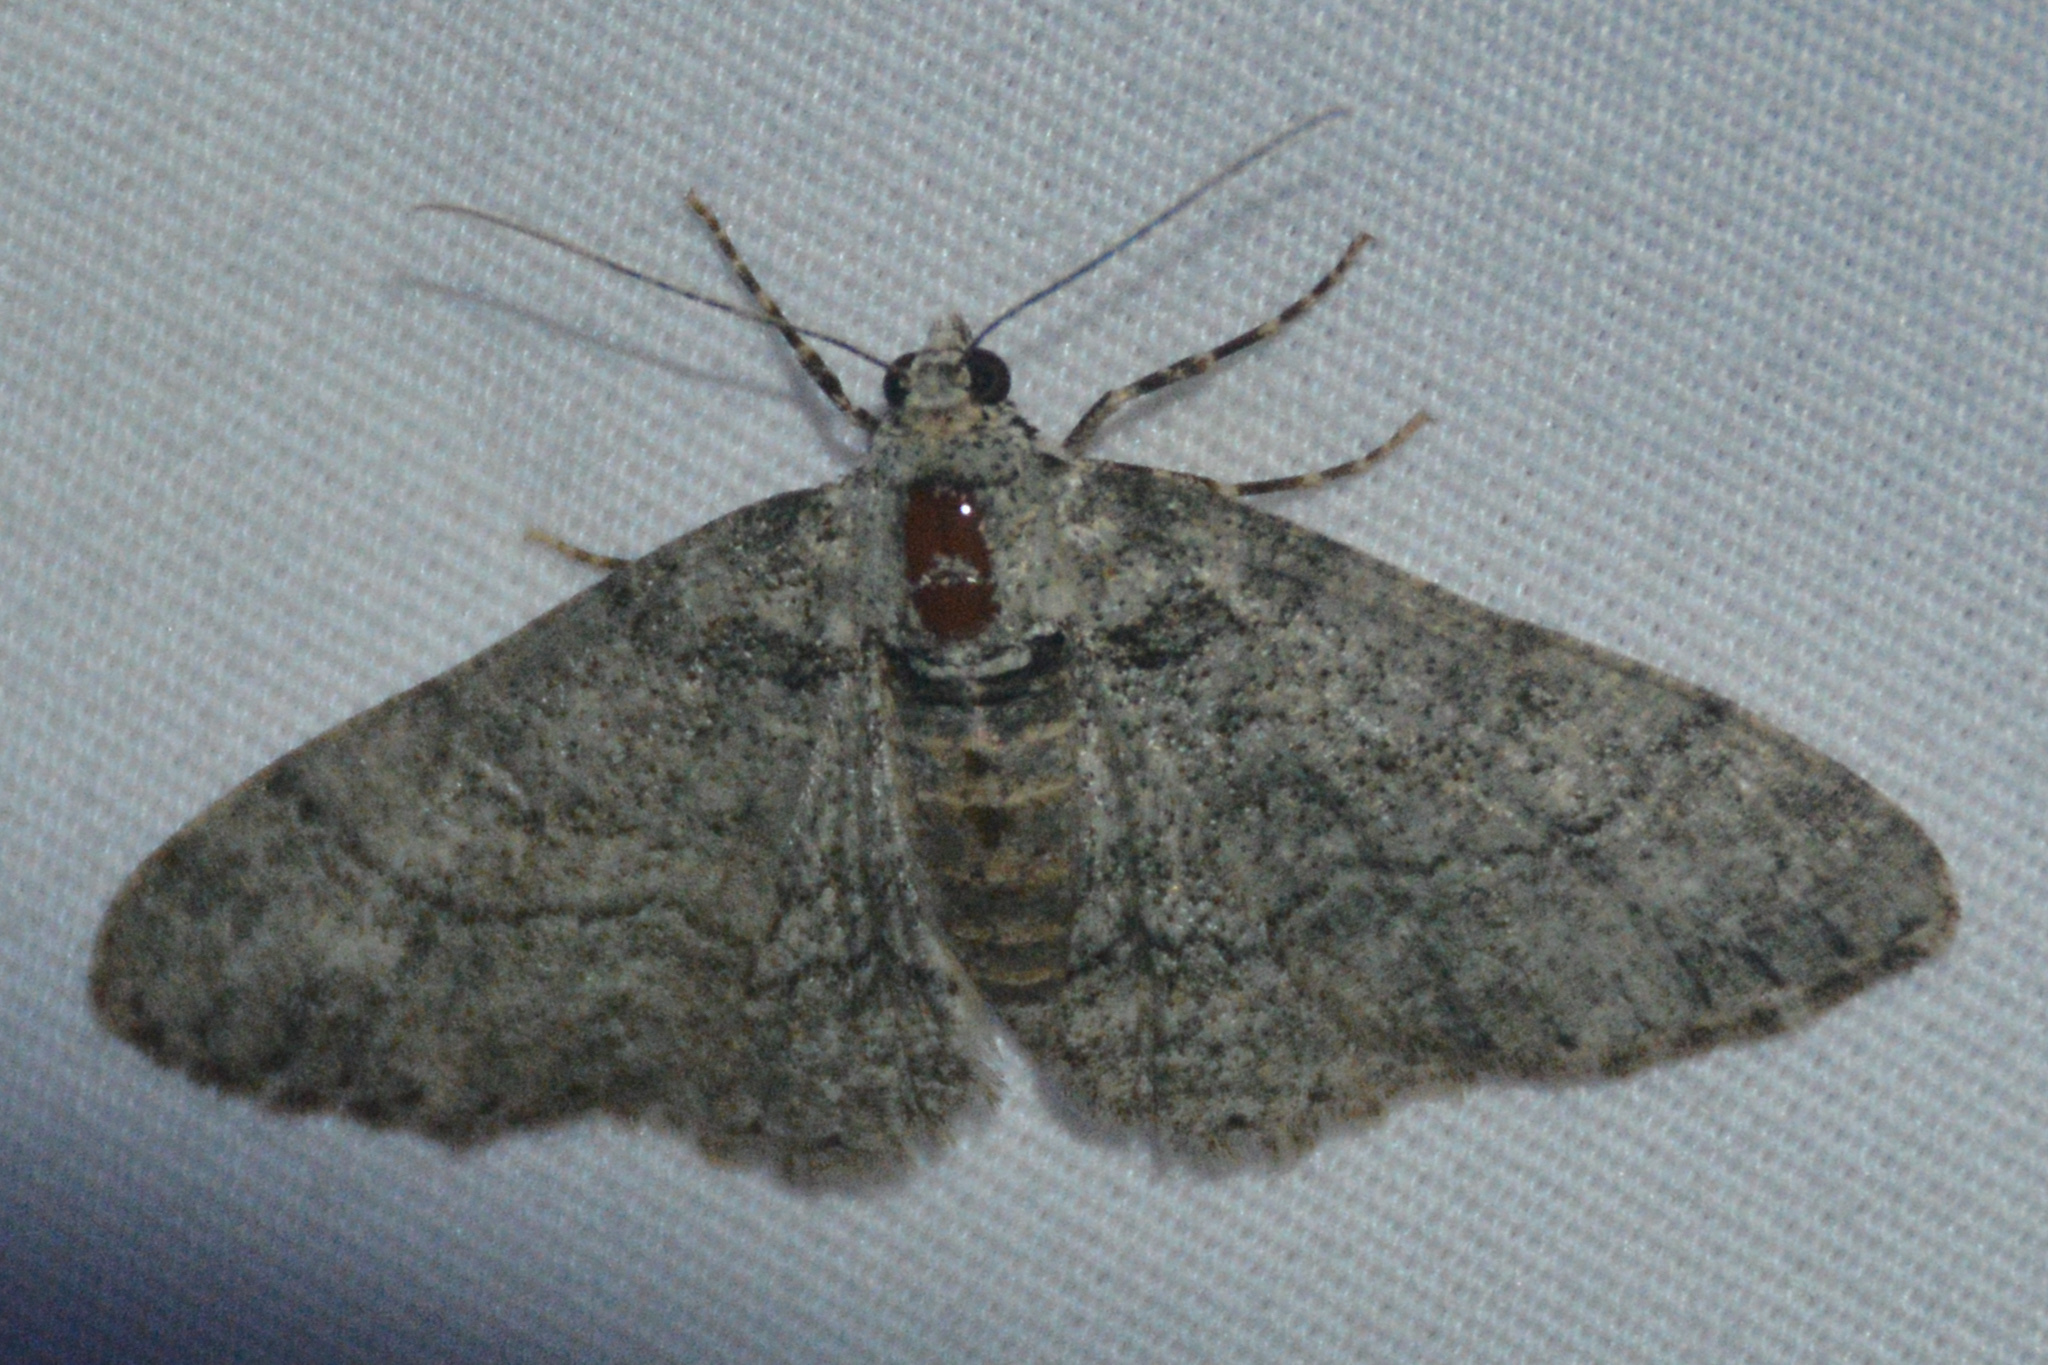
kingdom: Animalia
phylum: Arthropoda
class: Insecta
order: Lepidoptera
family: Geometridae
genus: Cleora
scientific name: Cleora sublunaria
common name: Double-lined gray
